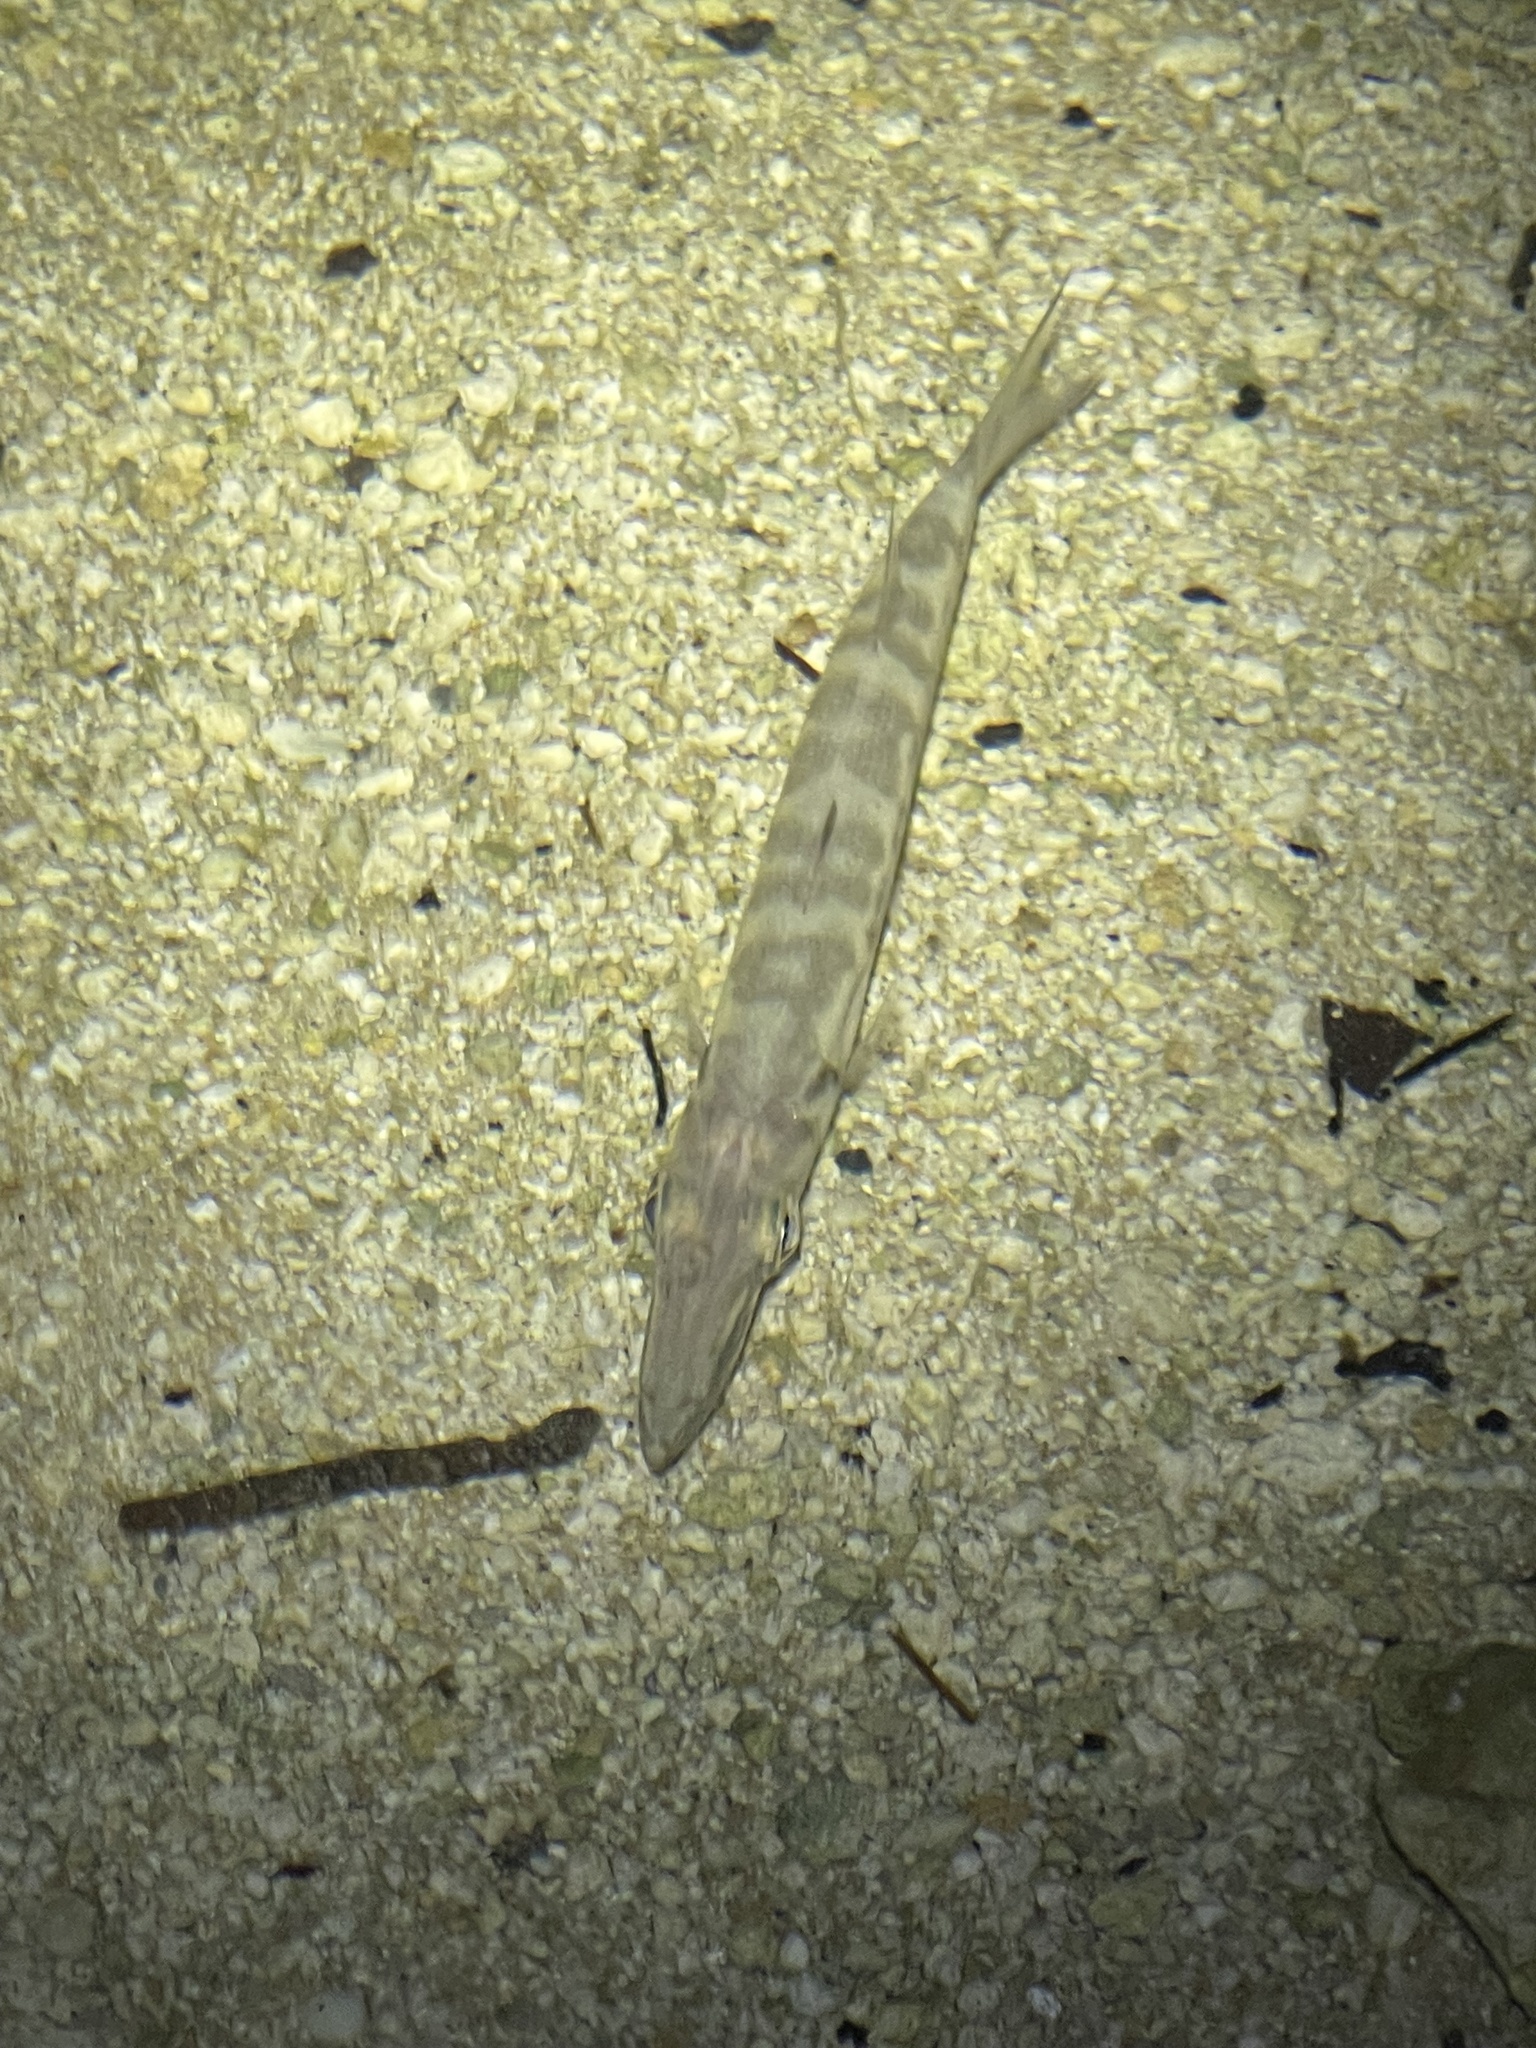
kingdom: Animalia
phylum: Chordata
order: Perciformes
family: Sphyraenidae
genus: Sphyraena
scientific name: Sphyraena barracuda
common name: Great barracuda
